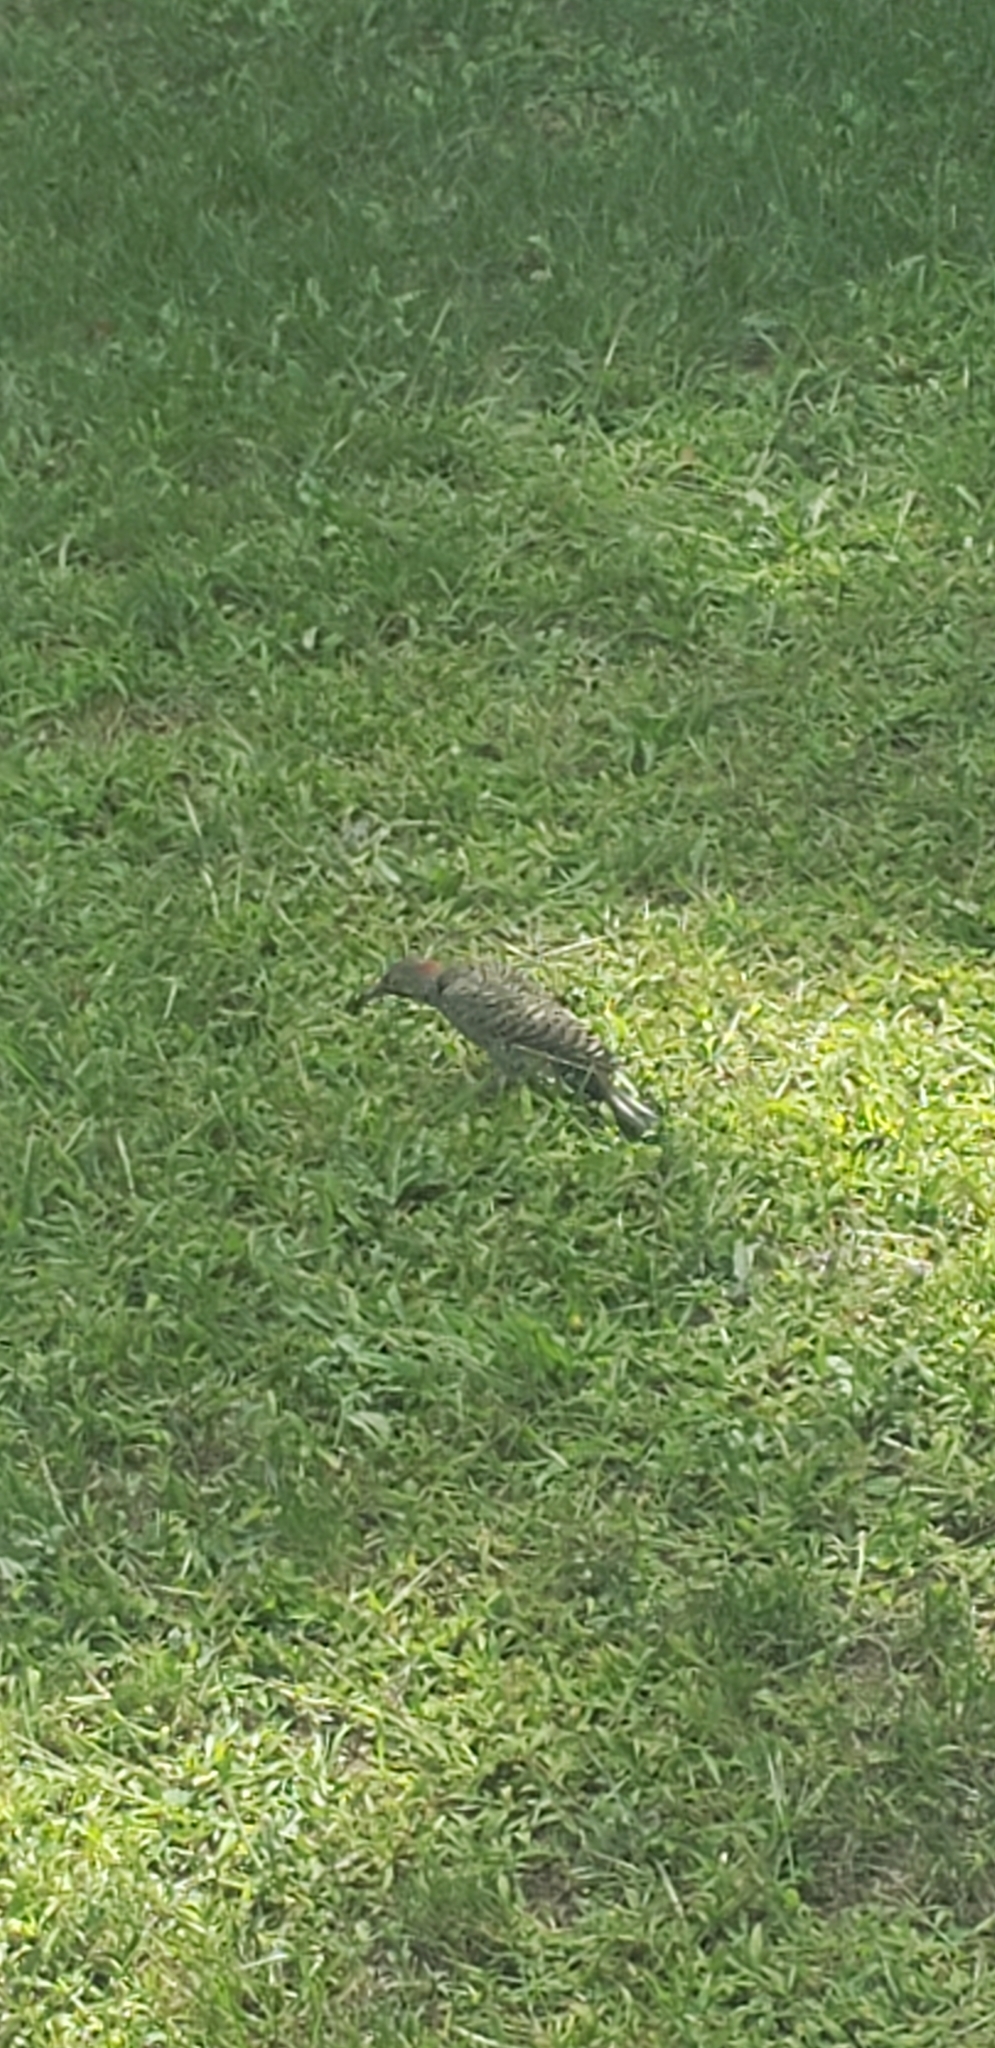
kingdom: Animalia
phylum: Chordata
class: Aves
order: Piciformes
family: Picidae
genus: Colaptes
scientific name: Colaptes auratus
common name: Northern flicker
